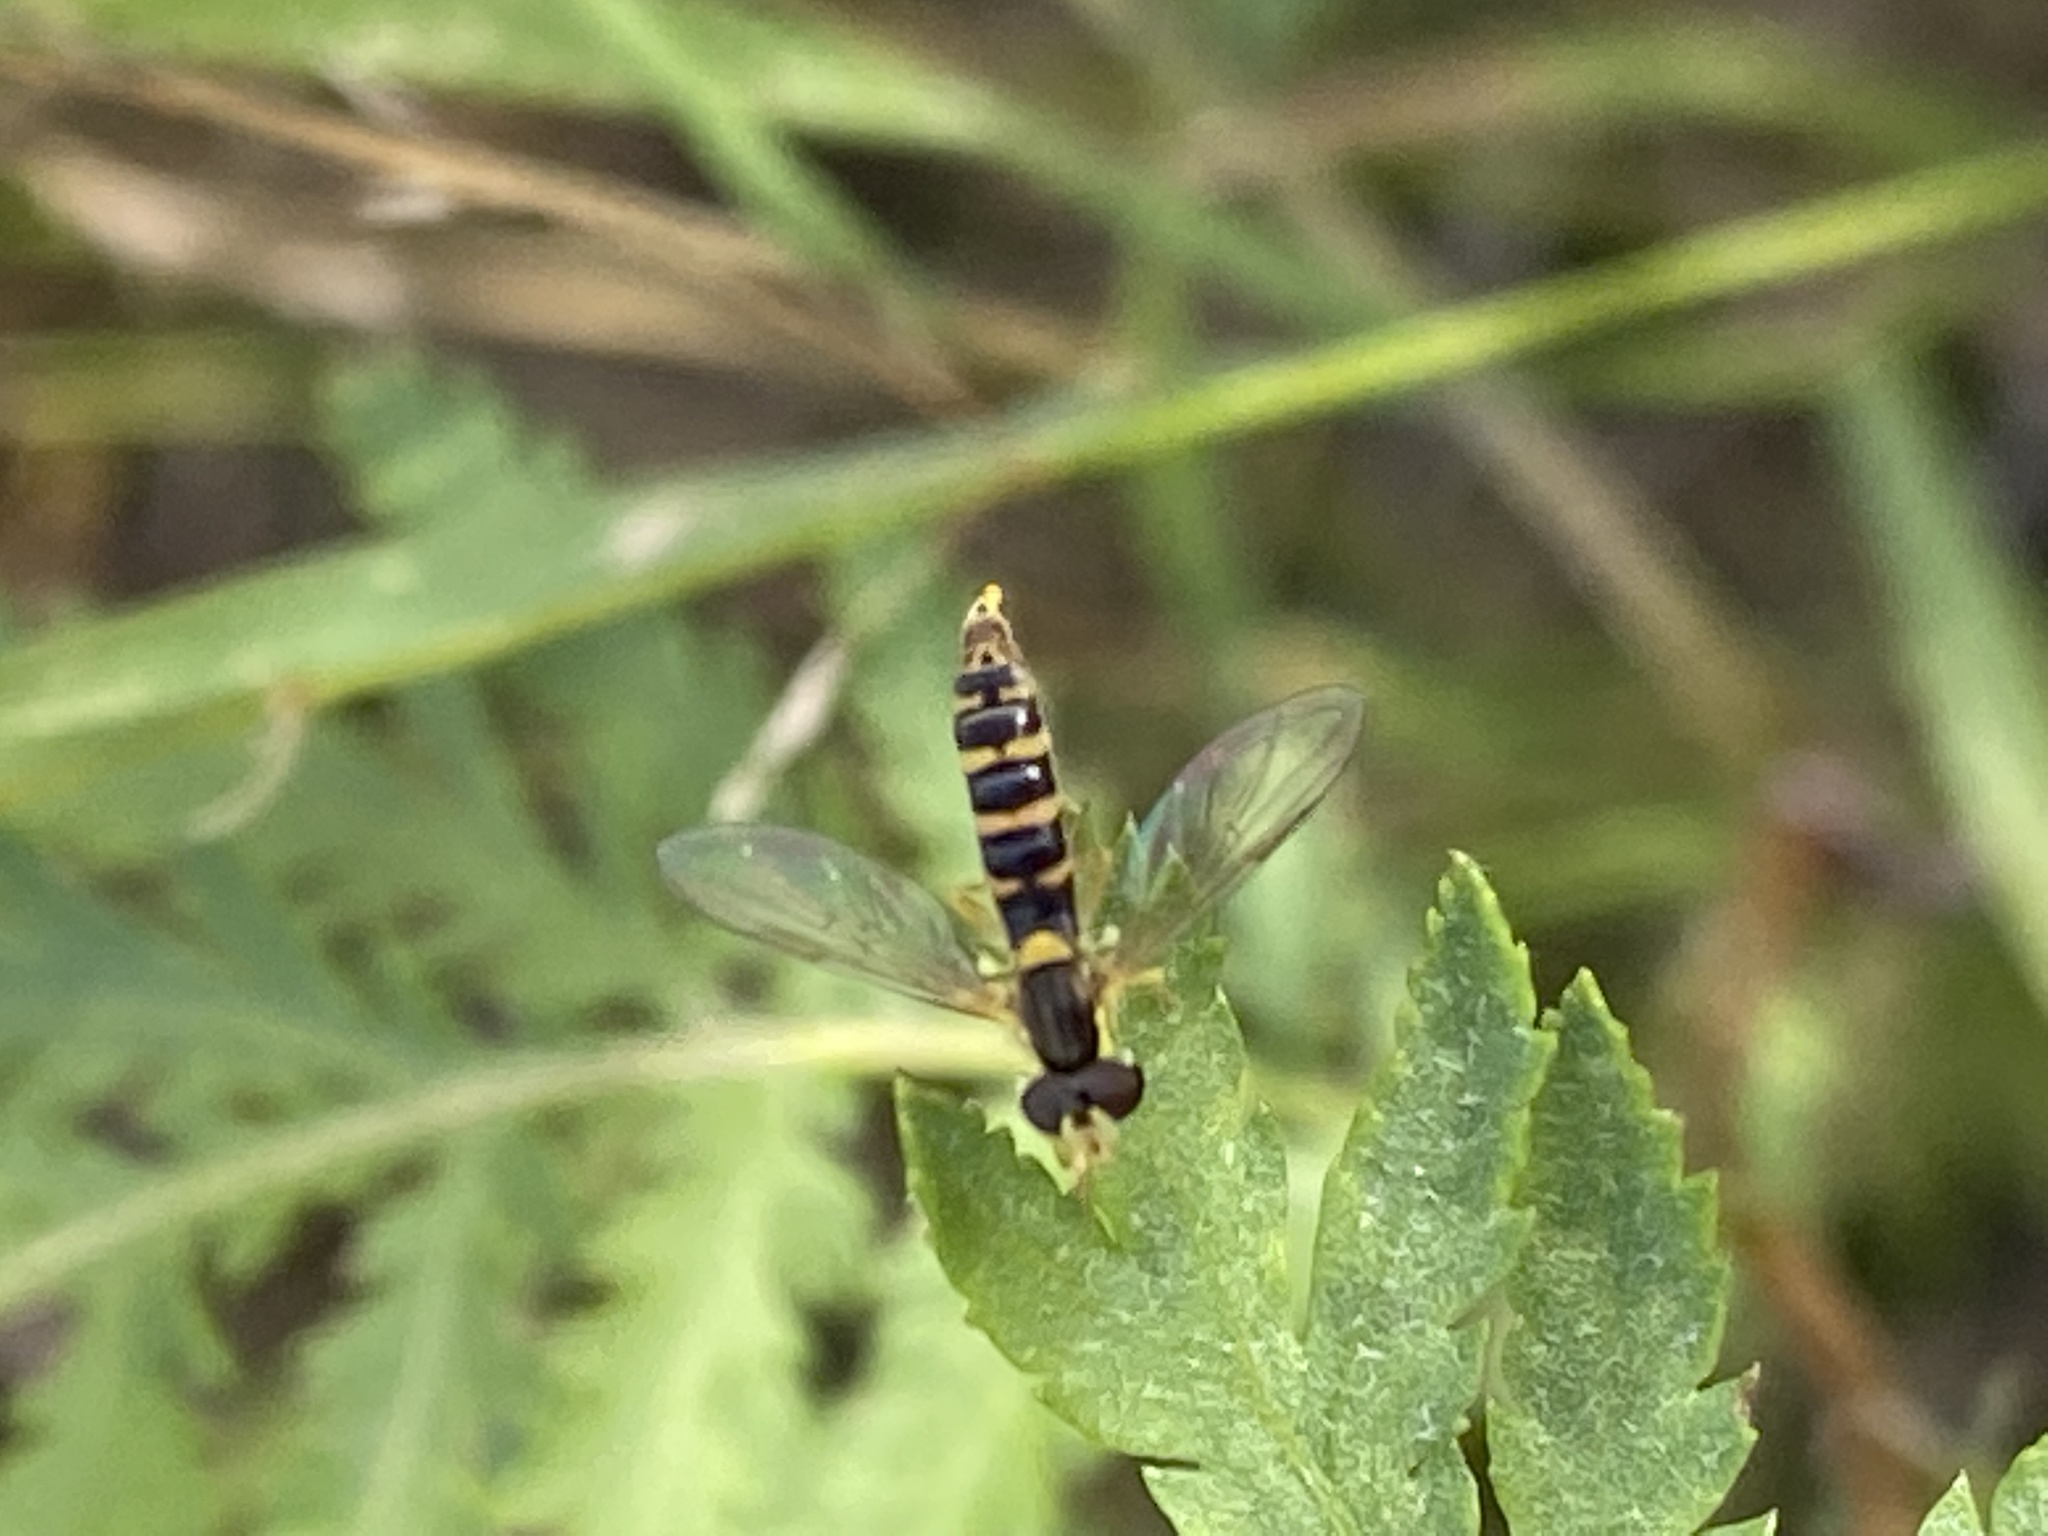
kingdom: Animalia
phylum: Arthropoda
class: Insecta
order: Diptera
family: Syrphidae
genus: Sphaerophoria
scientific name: Sphaerophoria
